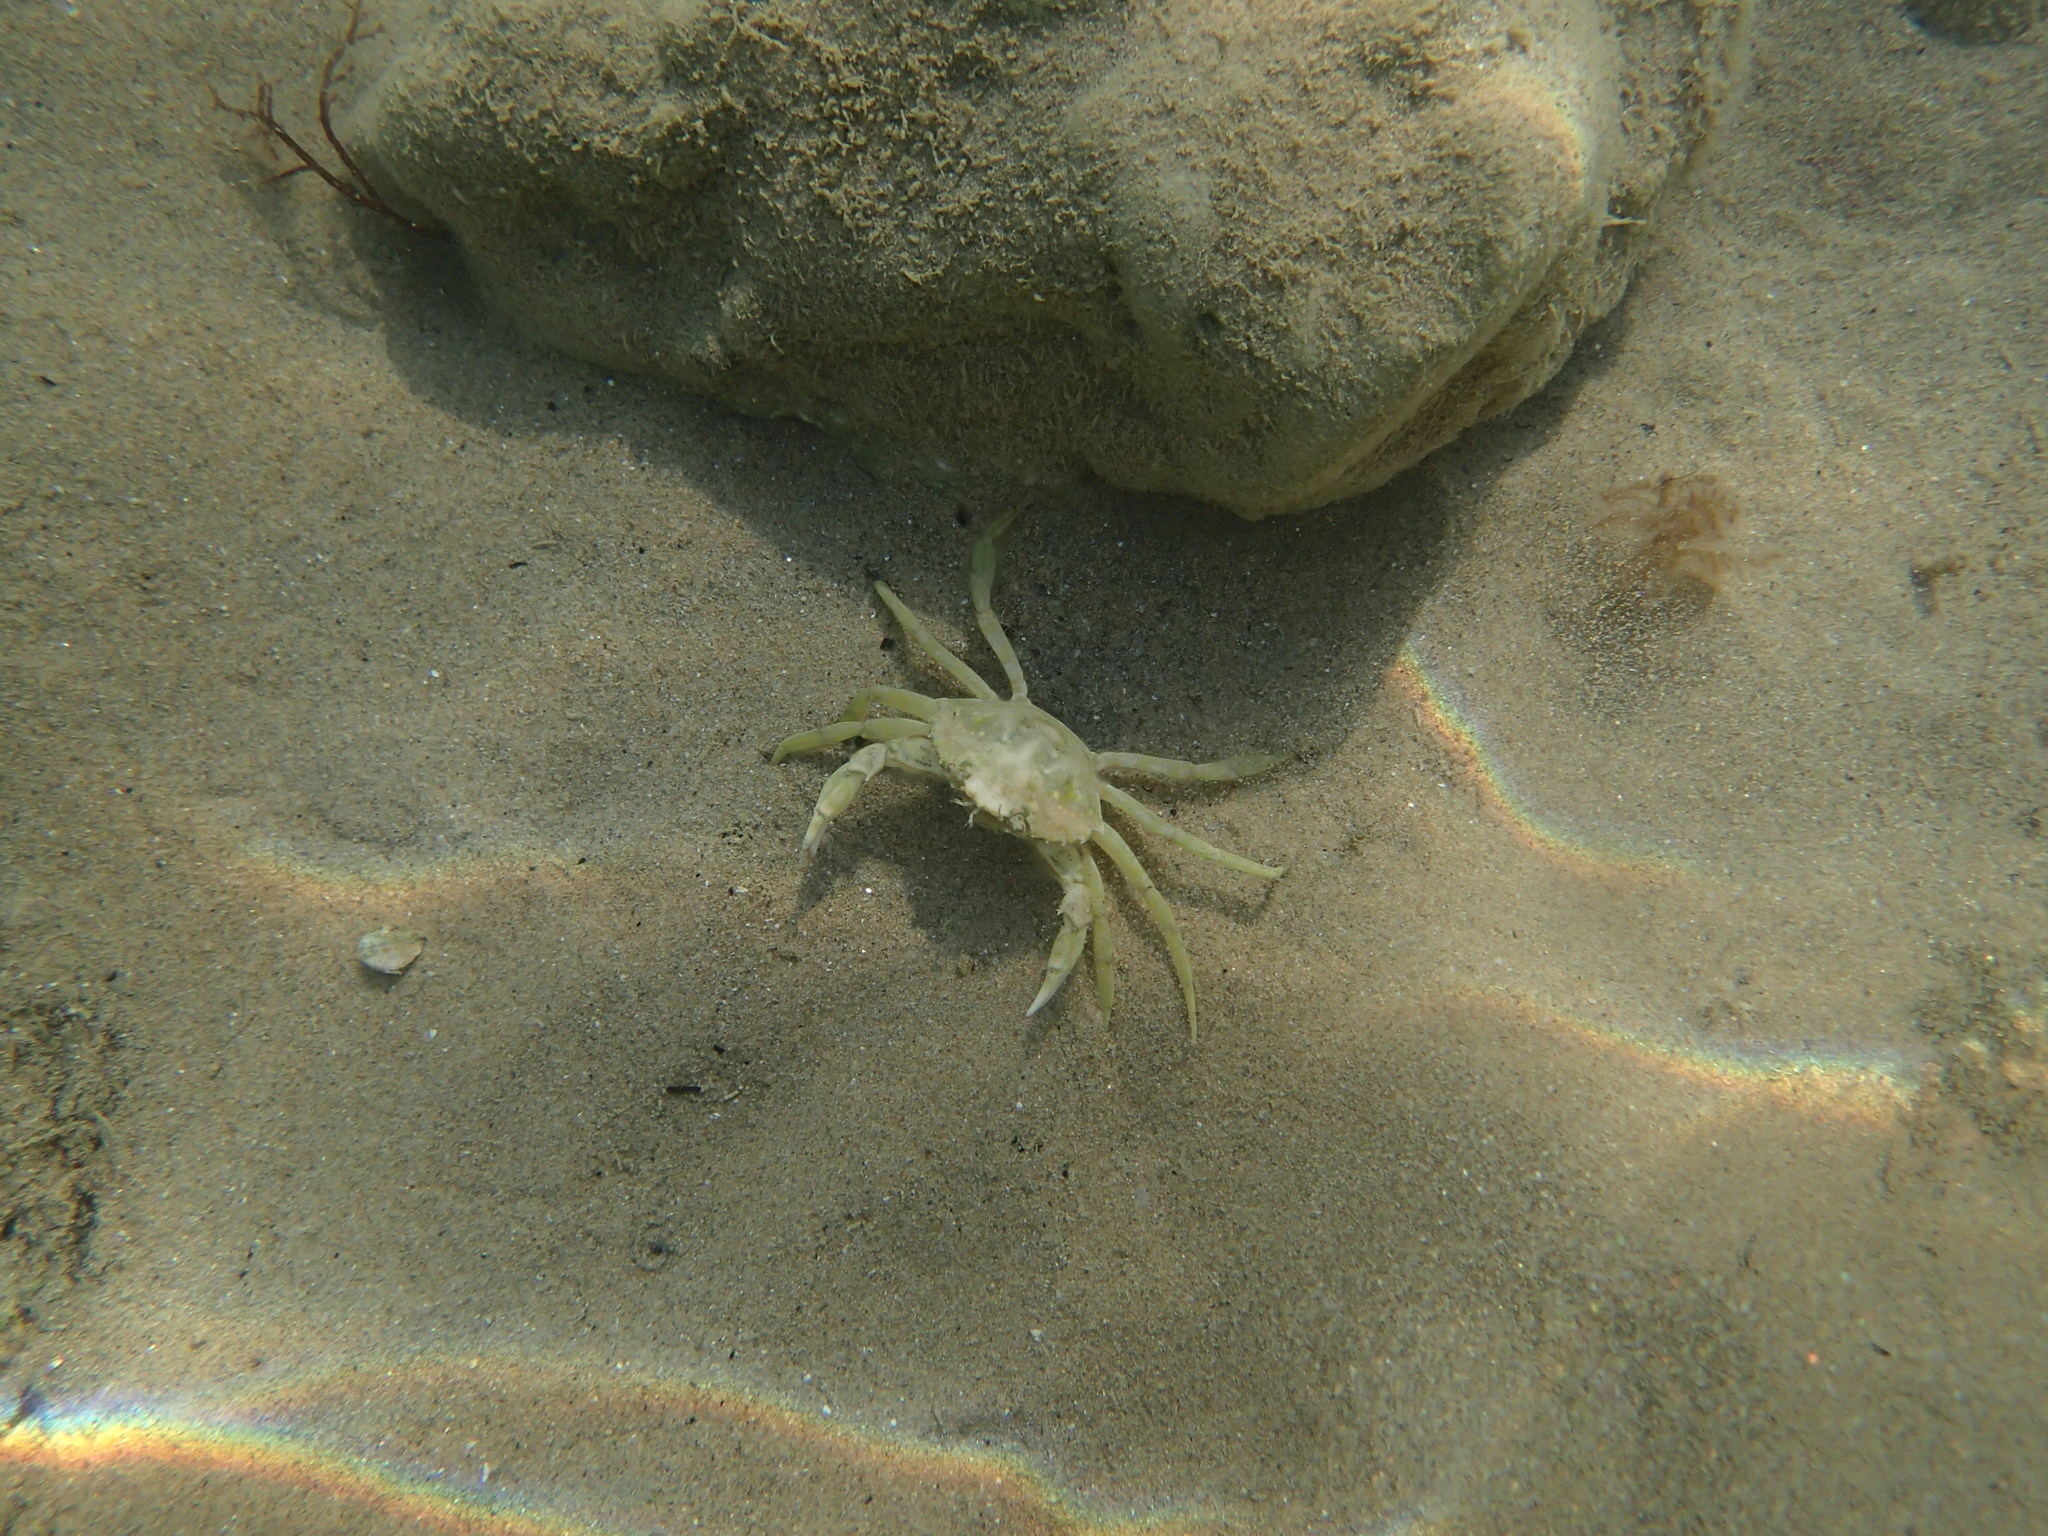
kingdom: Animalia
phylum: Arthropoda
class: Malacostraca
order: Decapoda
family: Carcinidae
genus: Carcinus
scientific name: Carcinus aestuarii
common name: Mediterranean green crab
